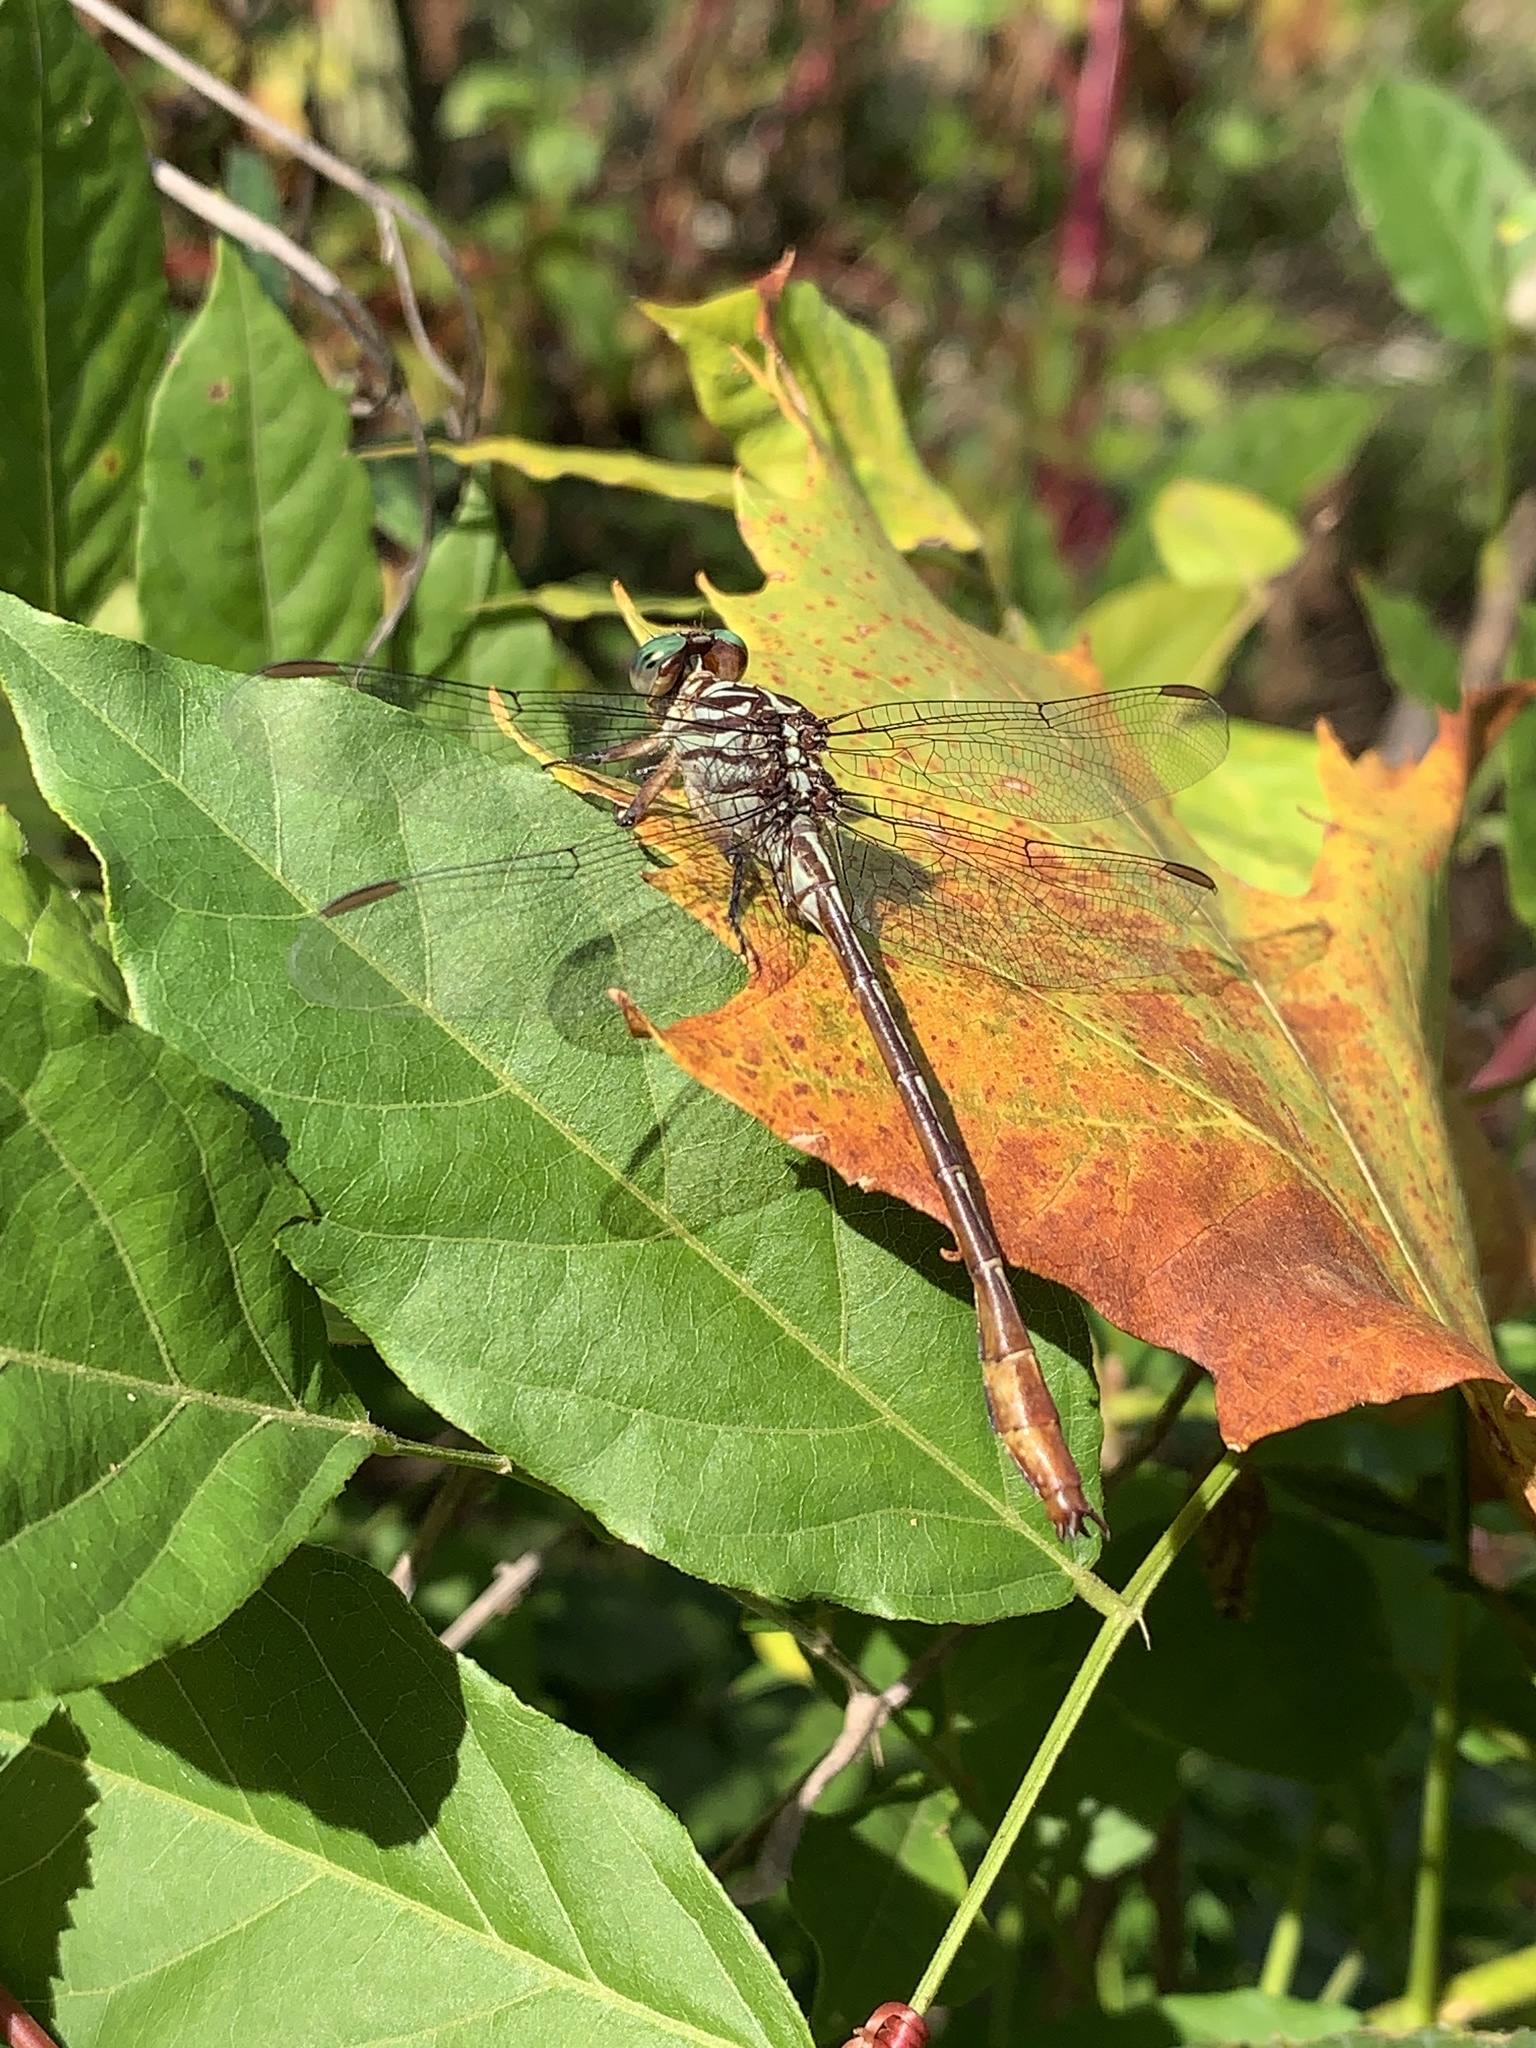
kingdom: Animalia
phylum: Arthropoda
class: Insecta
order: Odonata
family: Gomphidae
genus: Stylurus
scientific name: Stylurus plagiatus
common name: Russet-tipped clubtail
